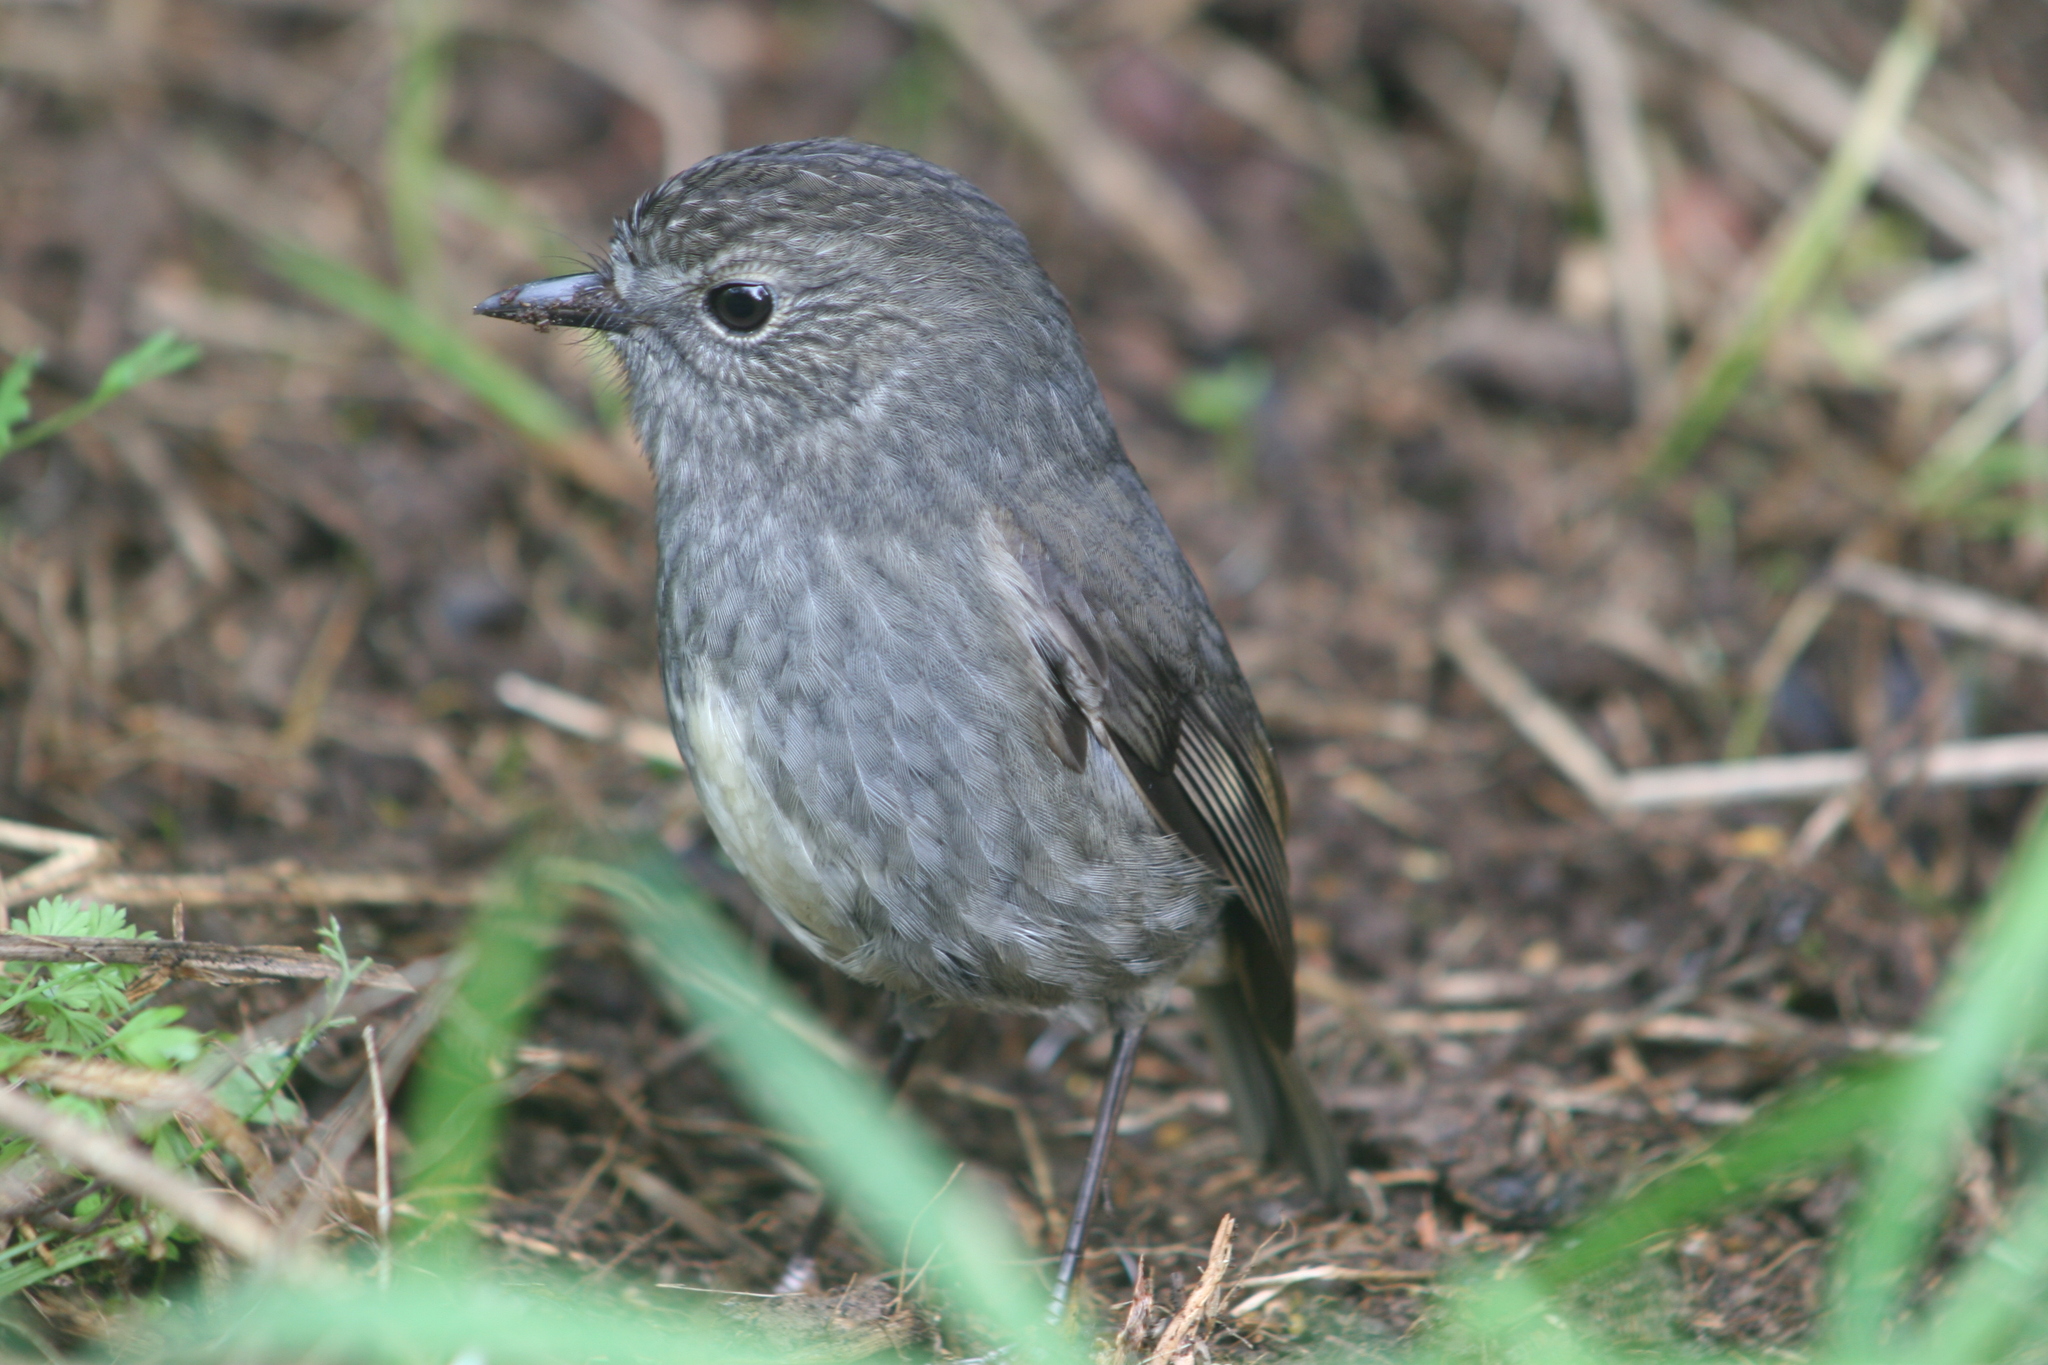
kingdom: Animalia
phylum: Chordata
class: Aves
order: Passeriformes
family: Petroicidae
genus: Petroica
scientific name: Petroica australis
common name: New zealand robin
